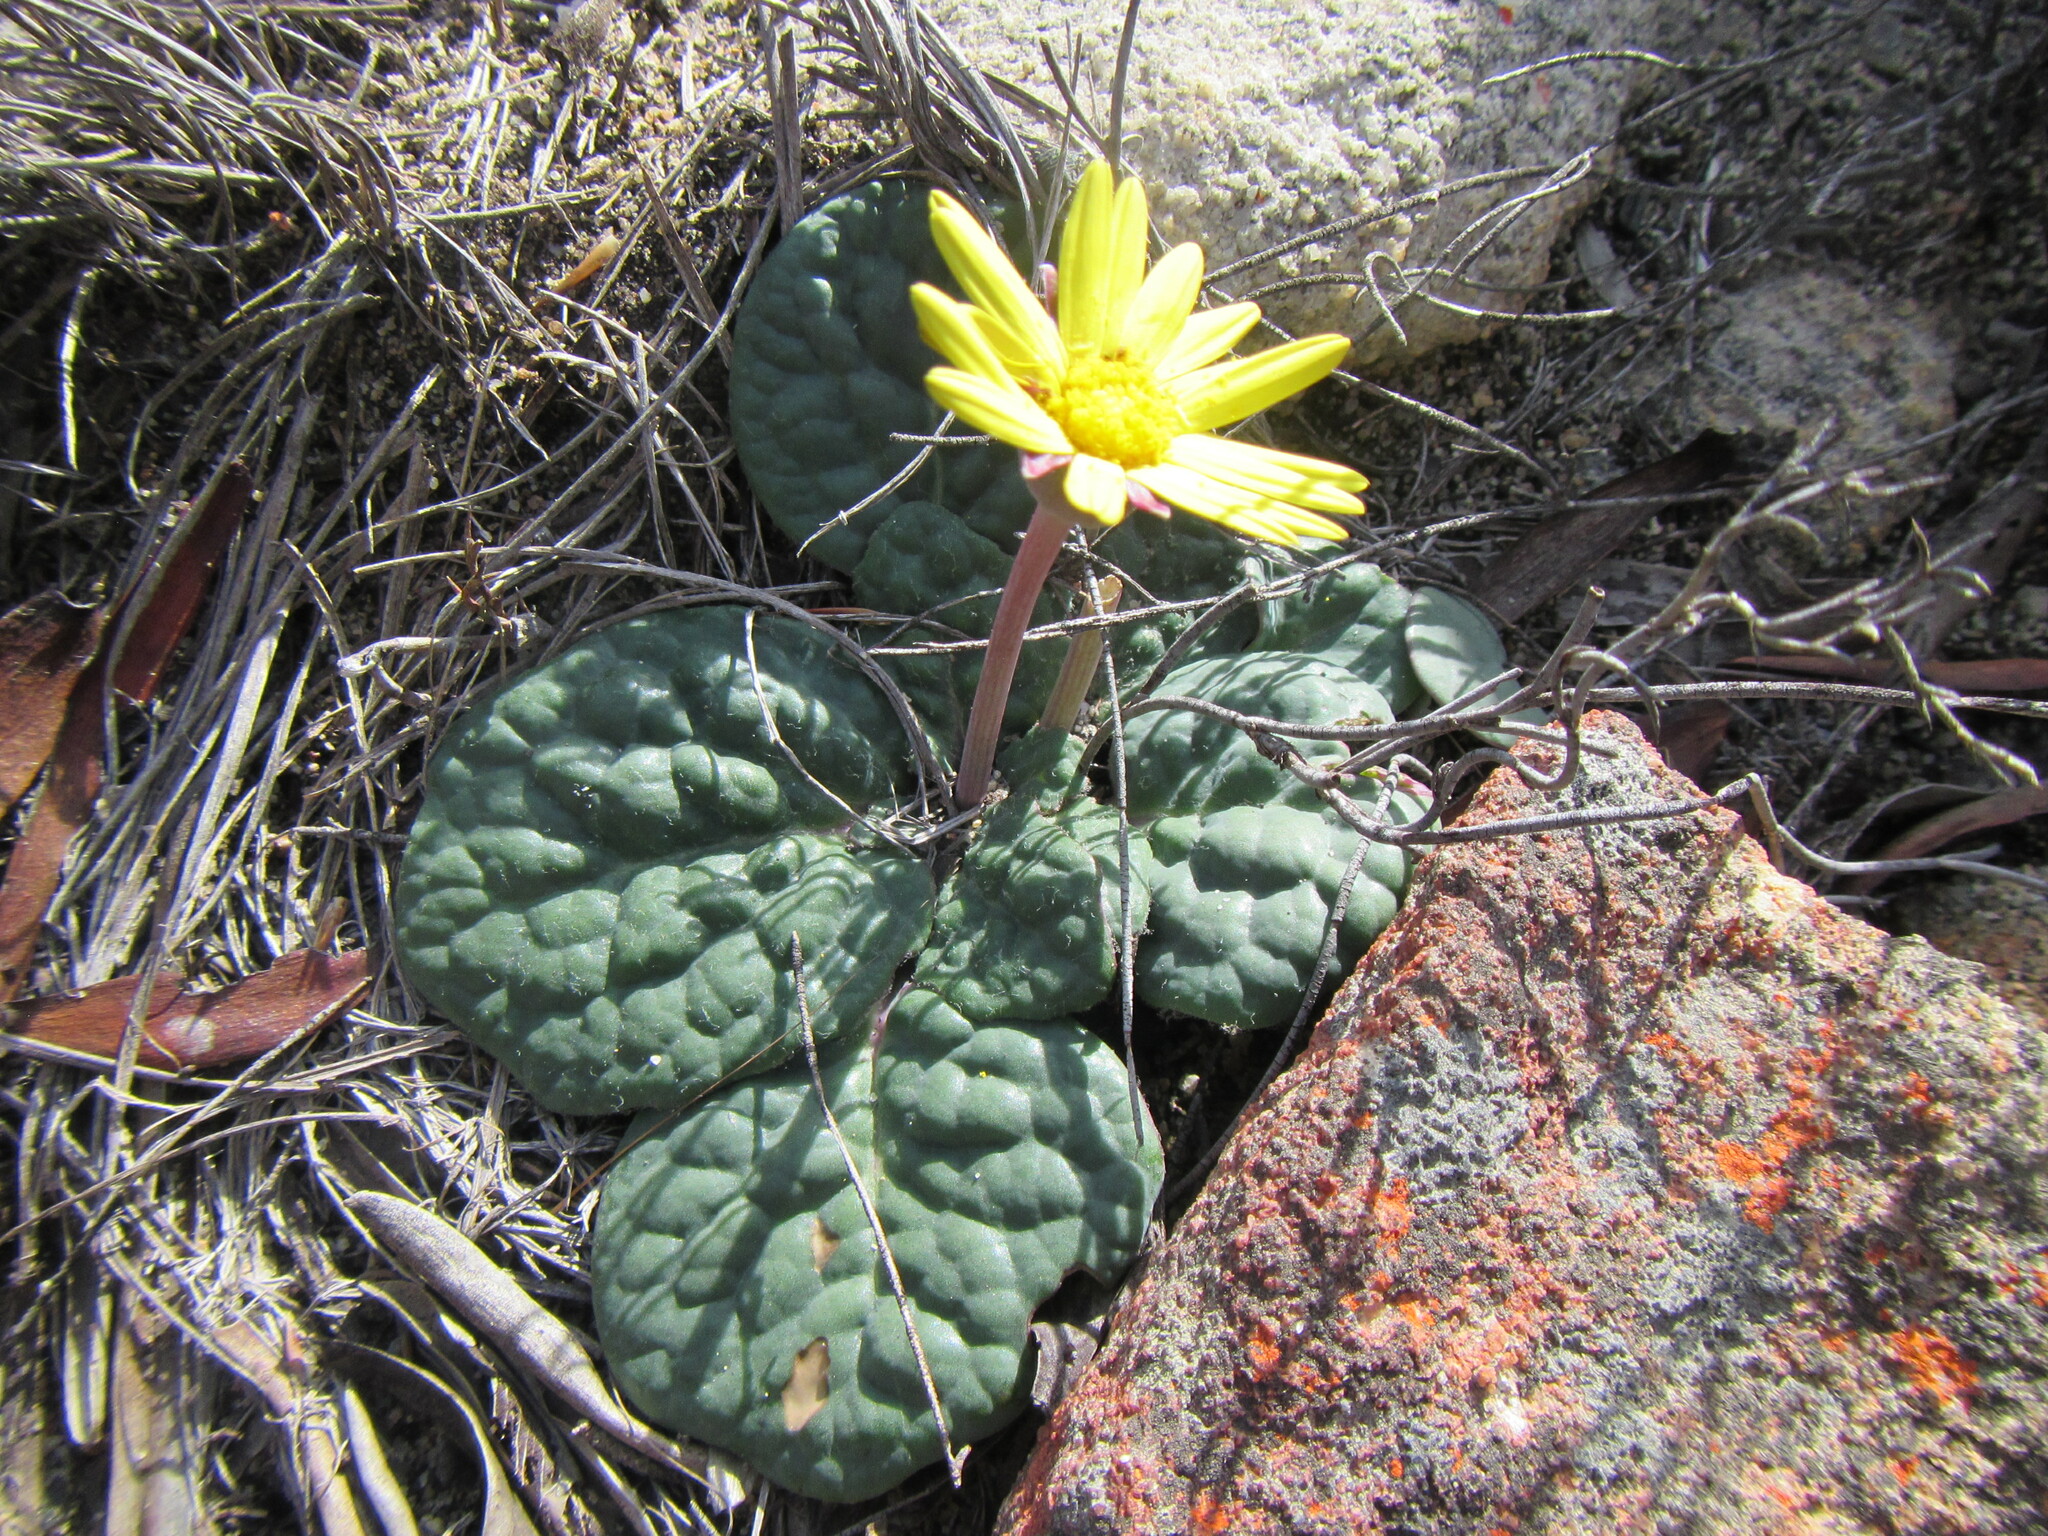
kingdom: Plantae
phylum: Tracheophyta
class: Magnoliopsida
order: Asterales
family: Asteraceae
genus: Othonna
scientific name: Othonna oleracea
